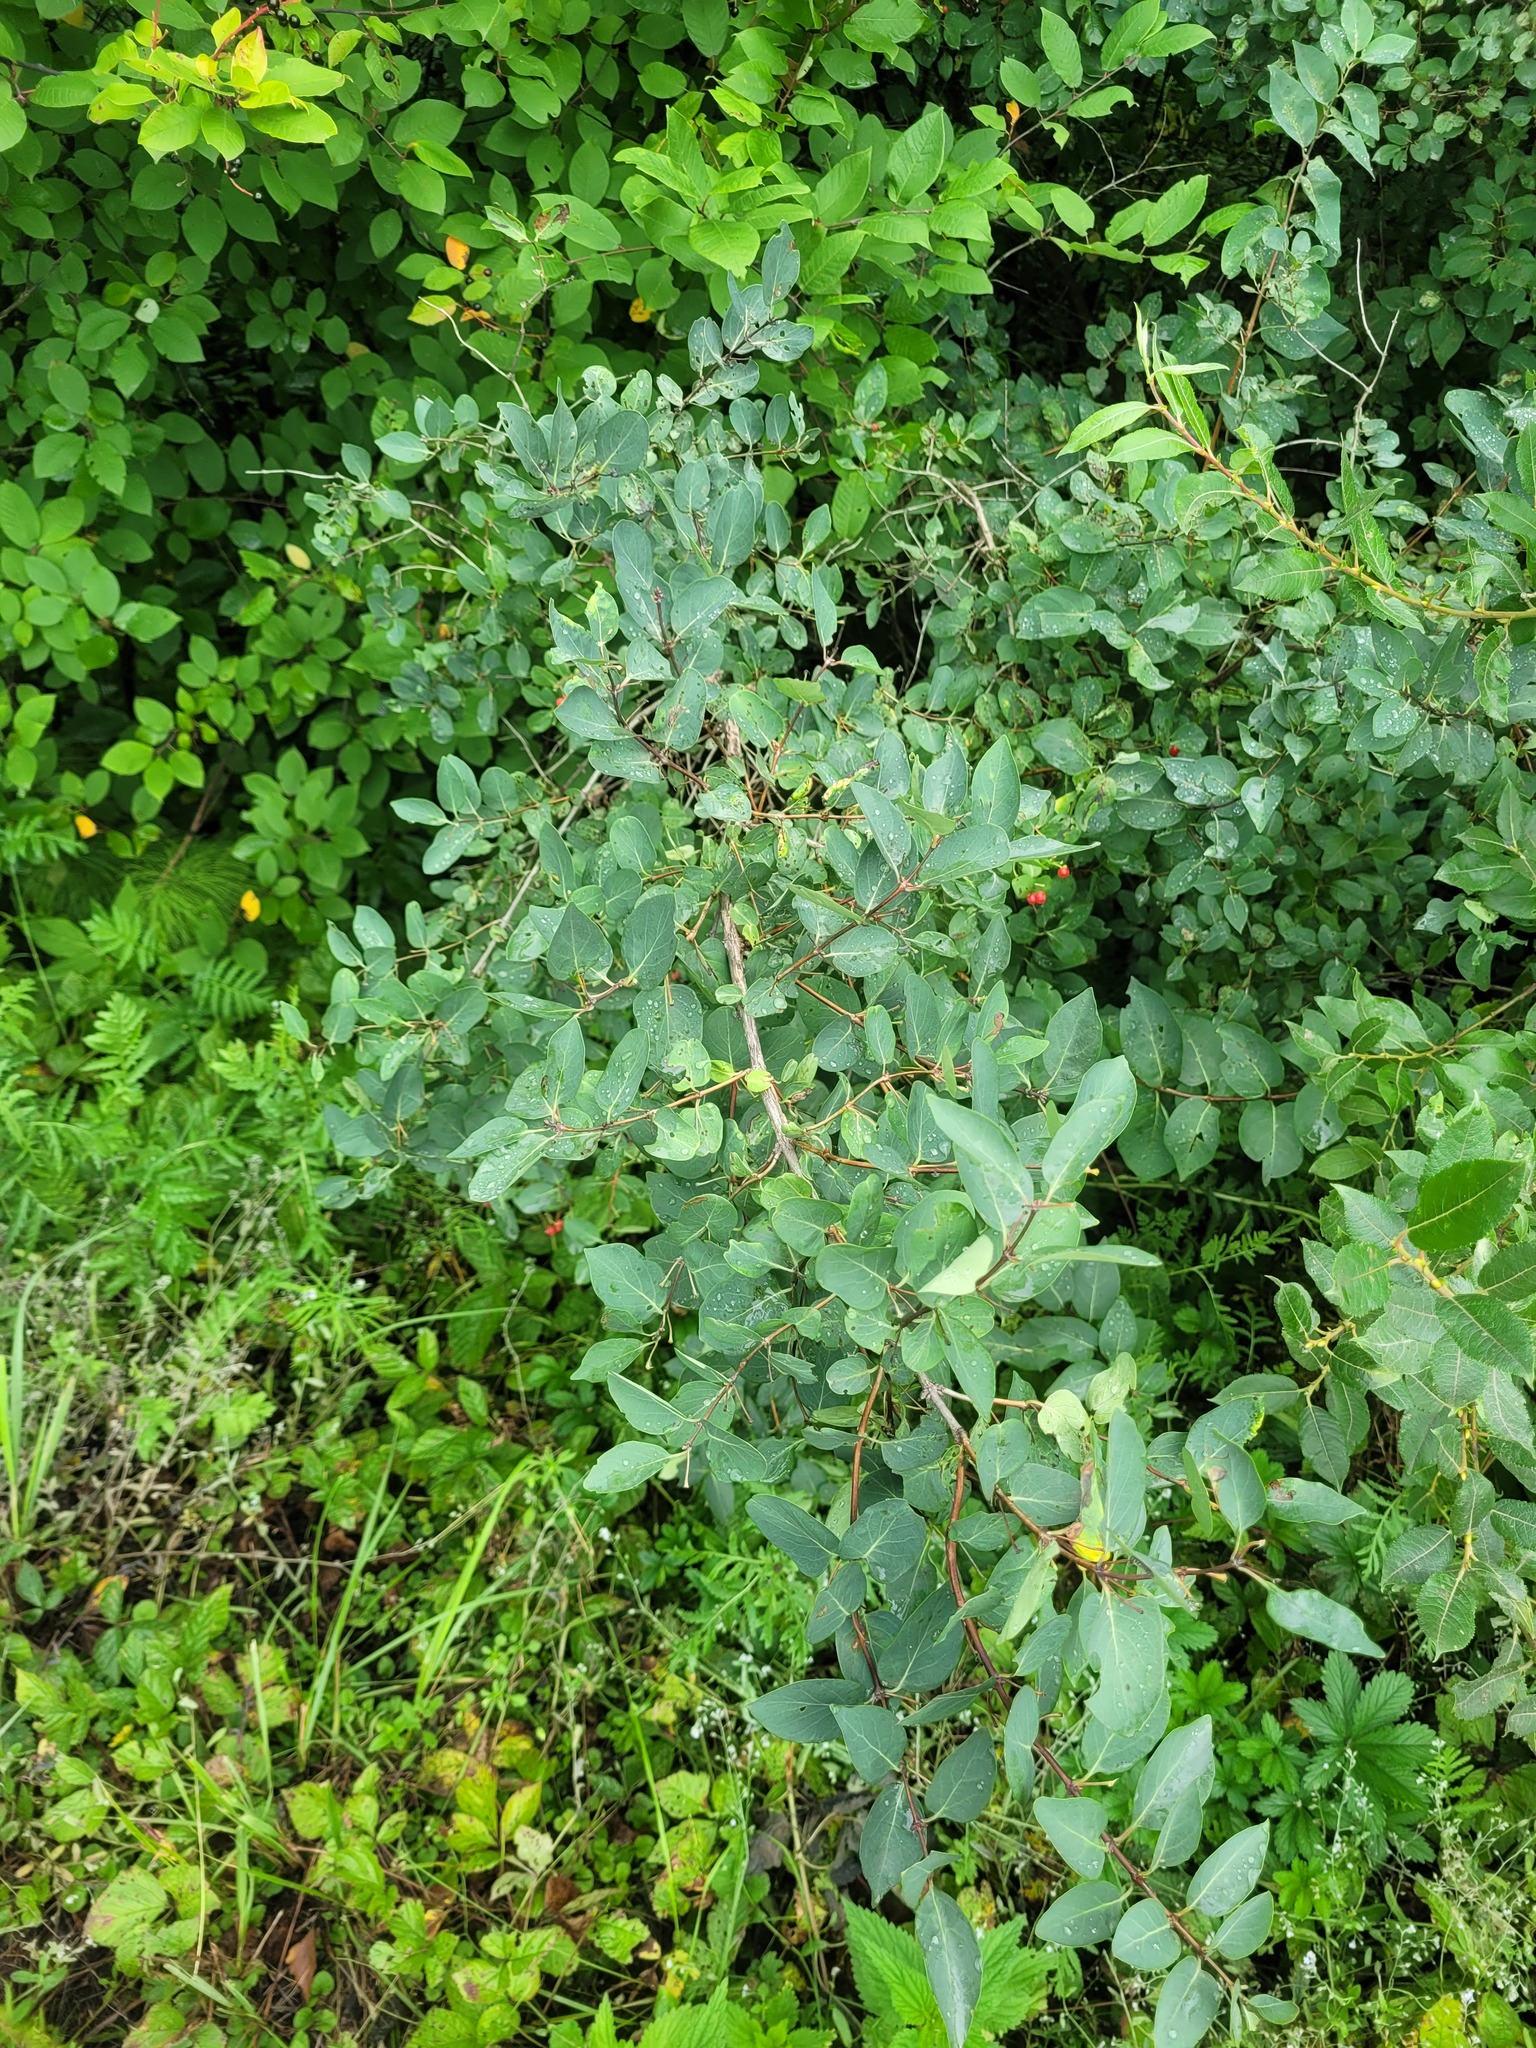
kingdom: Plantae
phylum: Tracheophyta
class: Magnoliopsida
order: Dipsacales
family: Caprifoliaceae
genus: Lonicera
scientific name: Lonicera tatarica
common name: Tatarian honeysuckle
